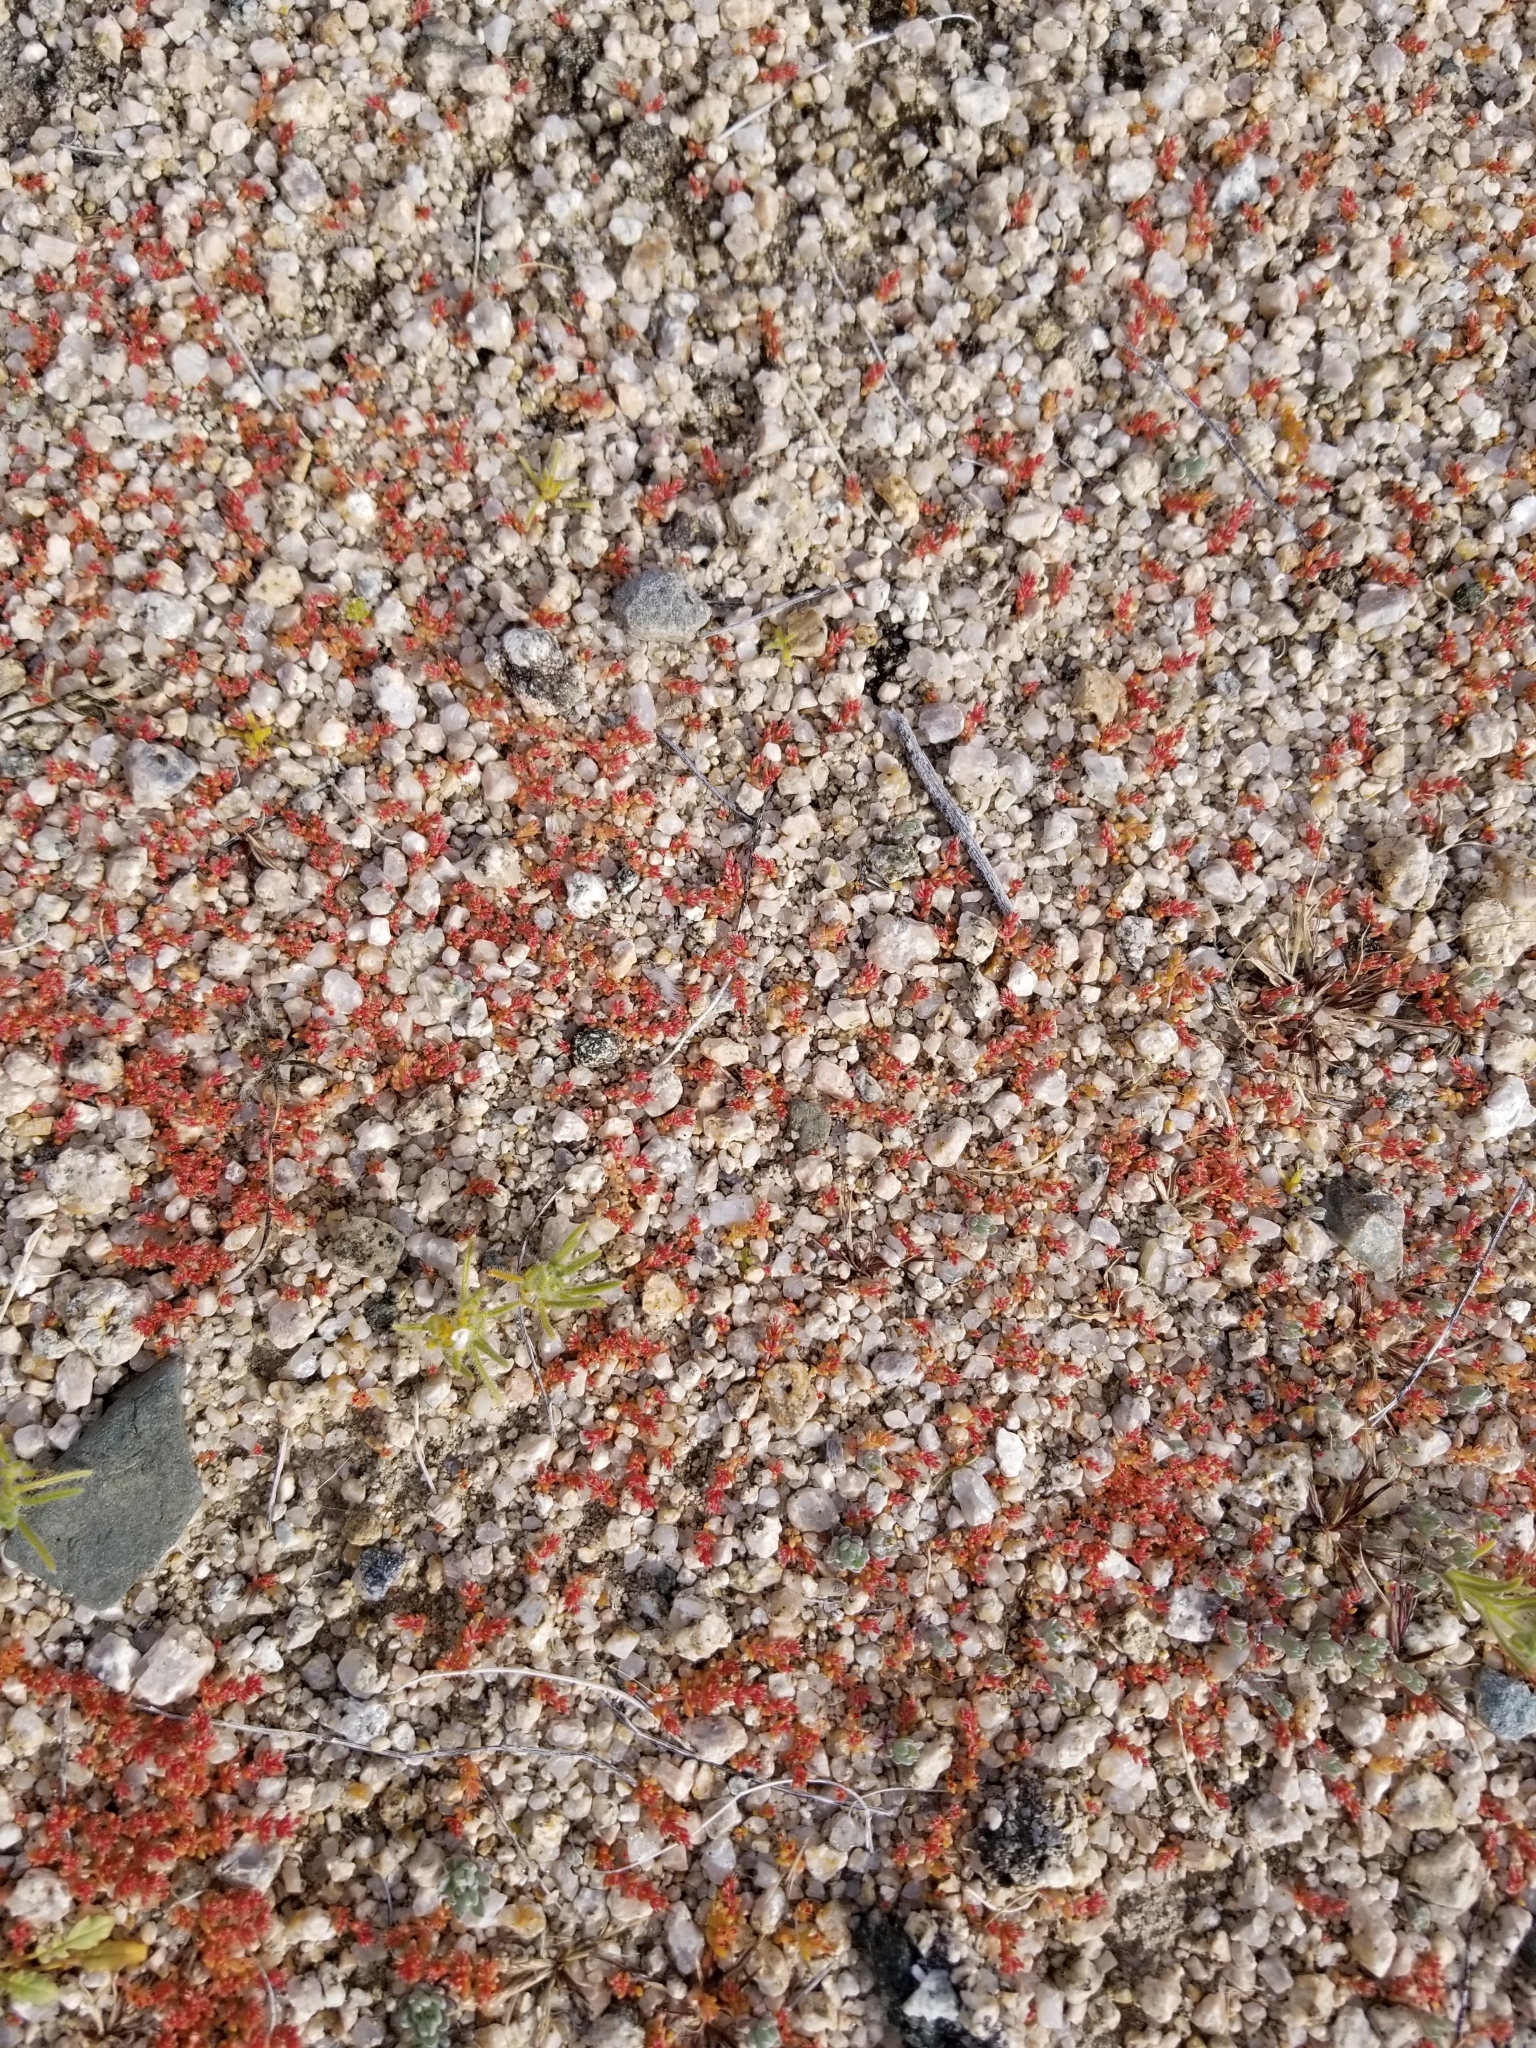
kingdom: Plantae
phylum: Tracheophyta
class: Magnoliopsida
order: Saxifragales
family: Crassulaceae
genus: Crassula
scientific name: Crassula connata
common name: Erect pygmyweed
